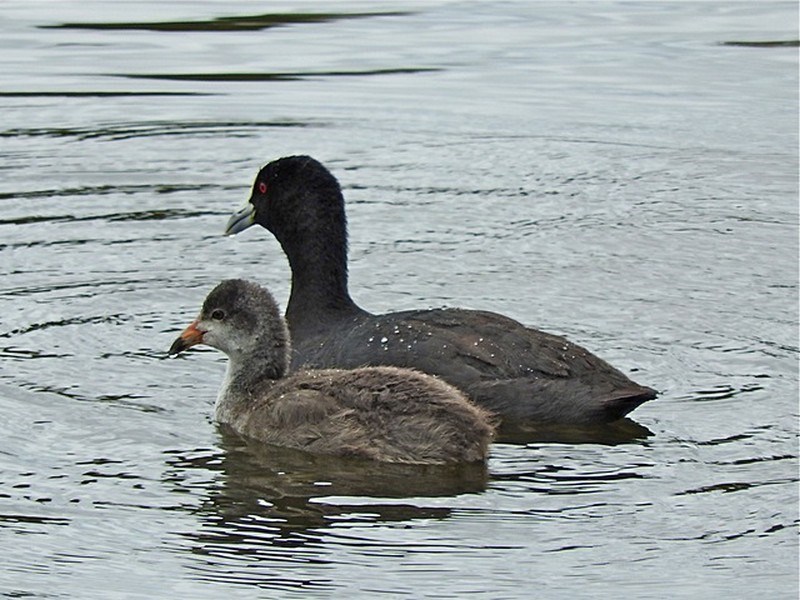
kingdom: Animalia
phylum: Chordata
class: Aves
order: Gruiformes
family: Rallidae
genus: Fulica
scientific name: Fulica atra
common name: Eurasian coot
